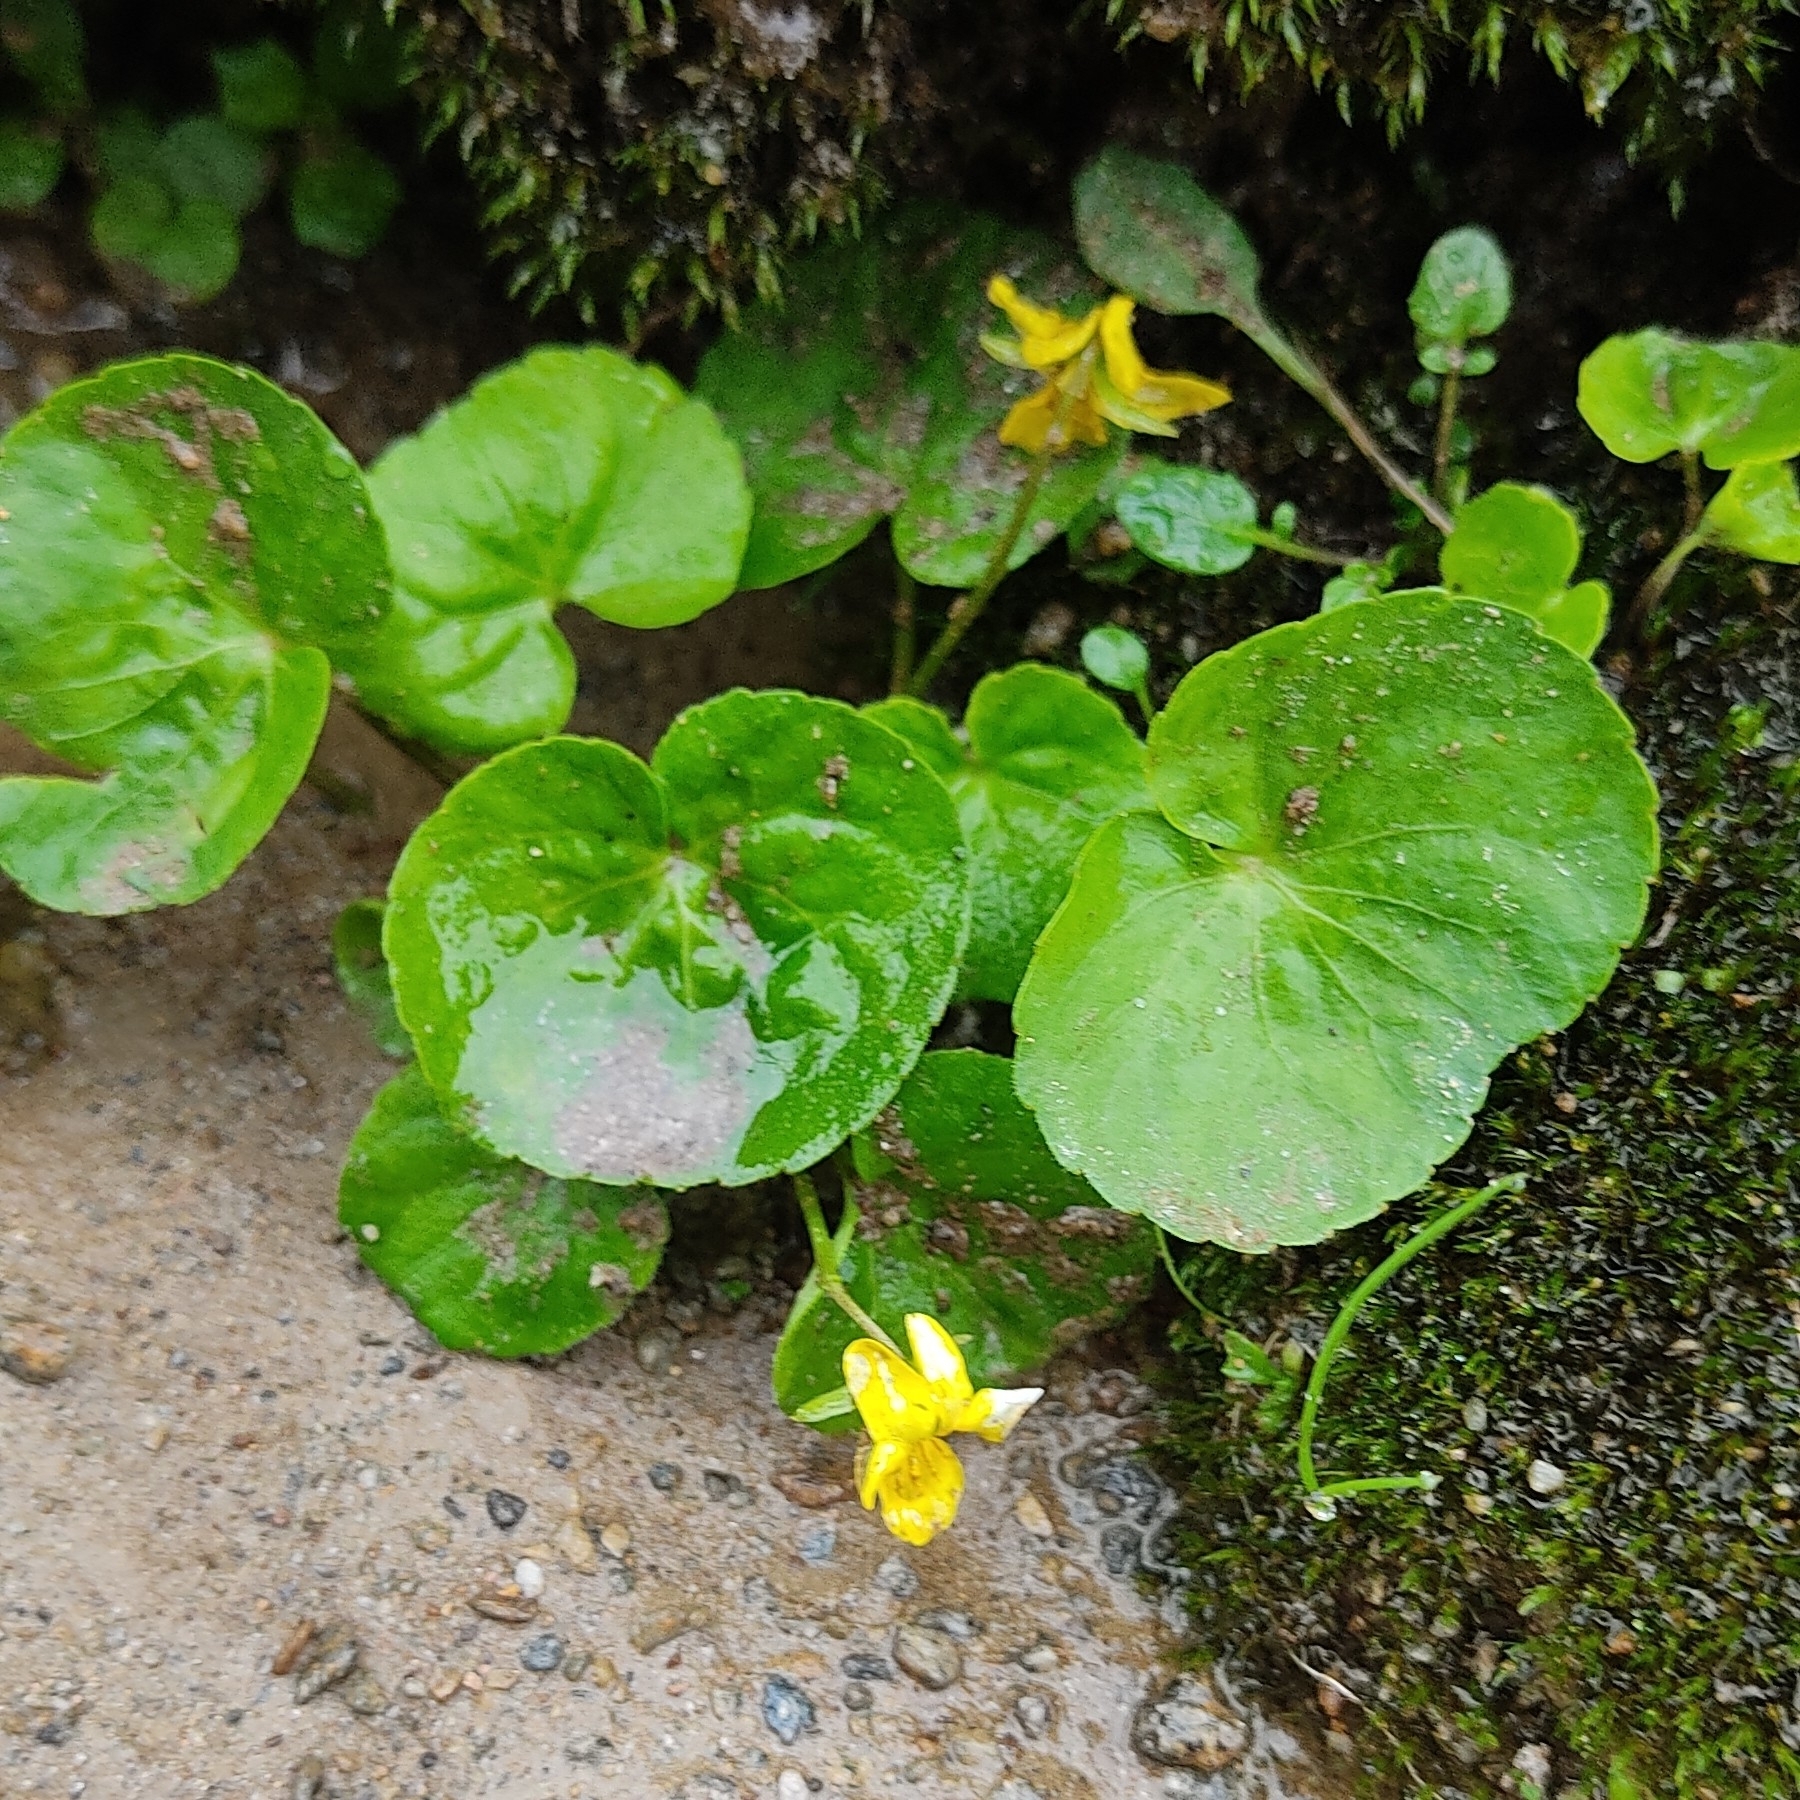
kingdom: Plantae
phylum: Tracheophyta
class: Magnoliopsida
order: Malpighiales
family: Violaceae
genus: Viola
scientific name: Viola biflora
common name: Alpine yellow violet
